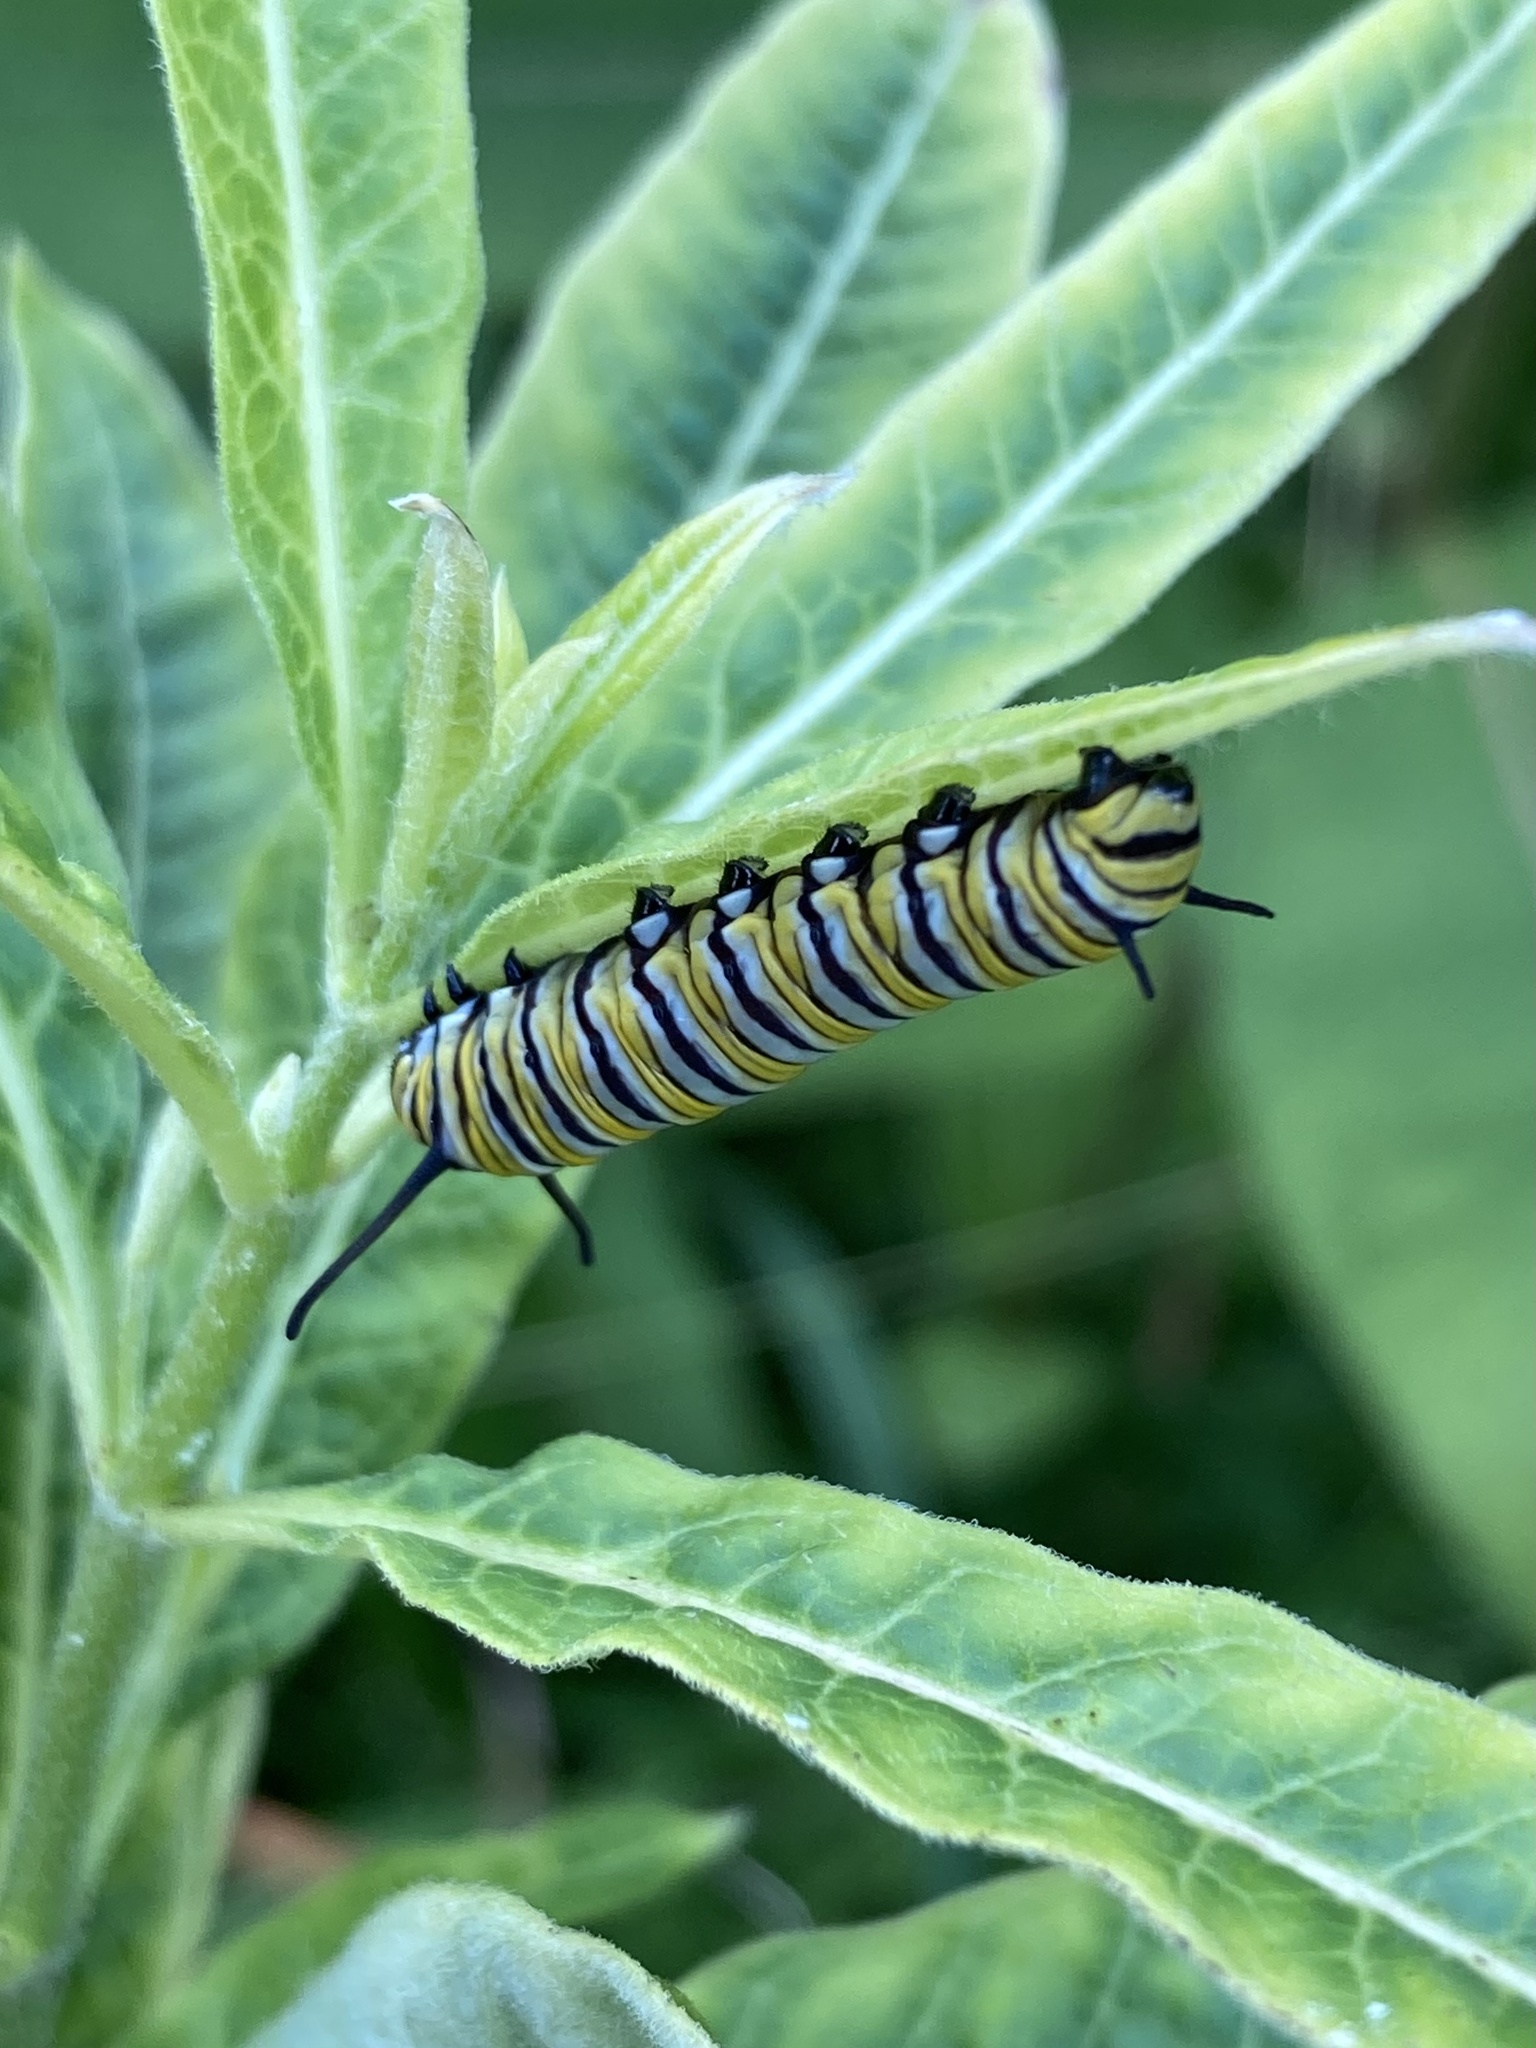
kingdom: Animalia
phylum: Arthropoda
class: Insecta
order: Lepidoptera
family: Nymphalidae
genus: Danaus
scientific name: Danaus plexippus
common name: Monarch
